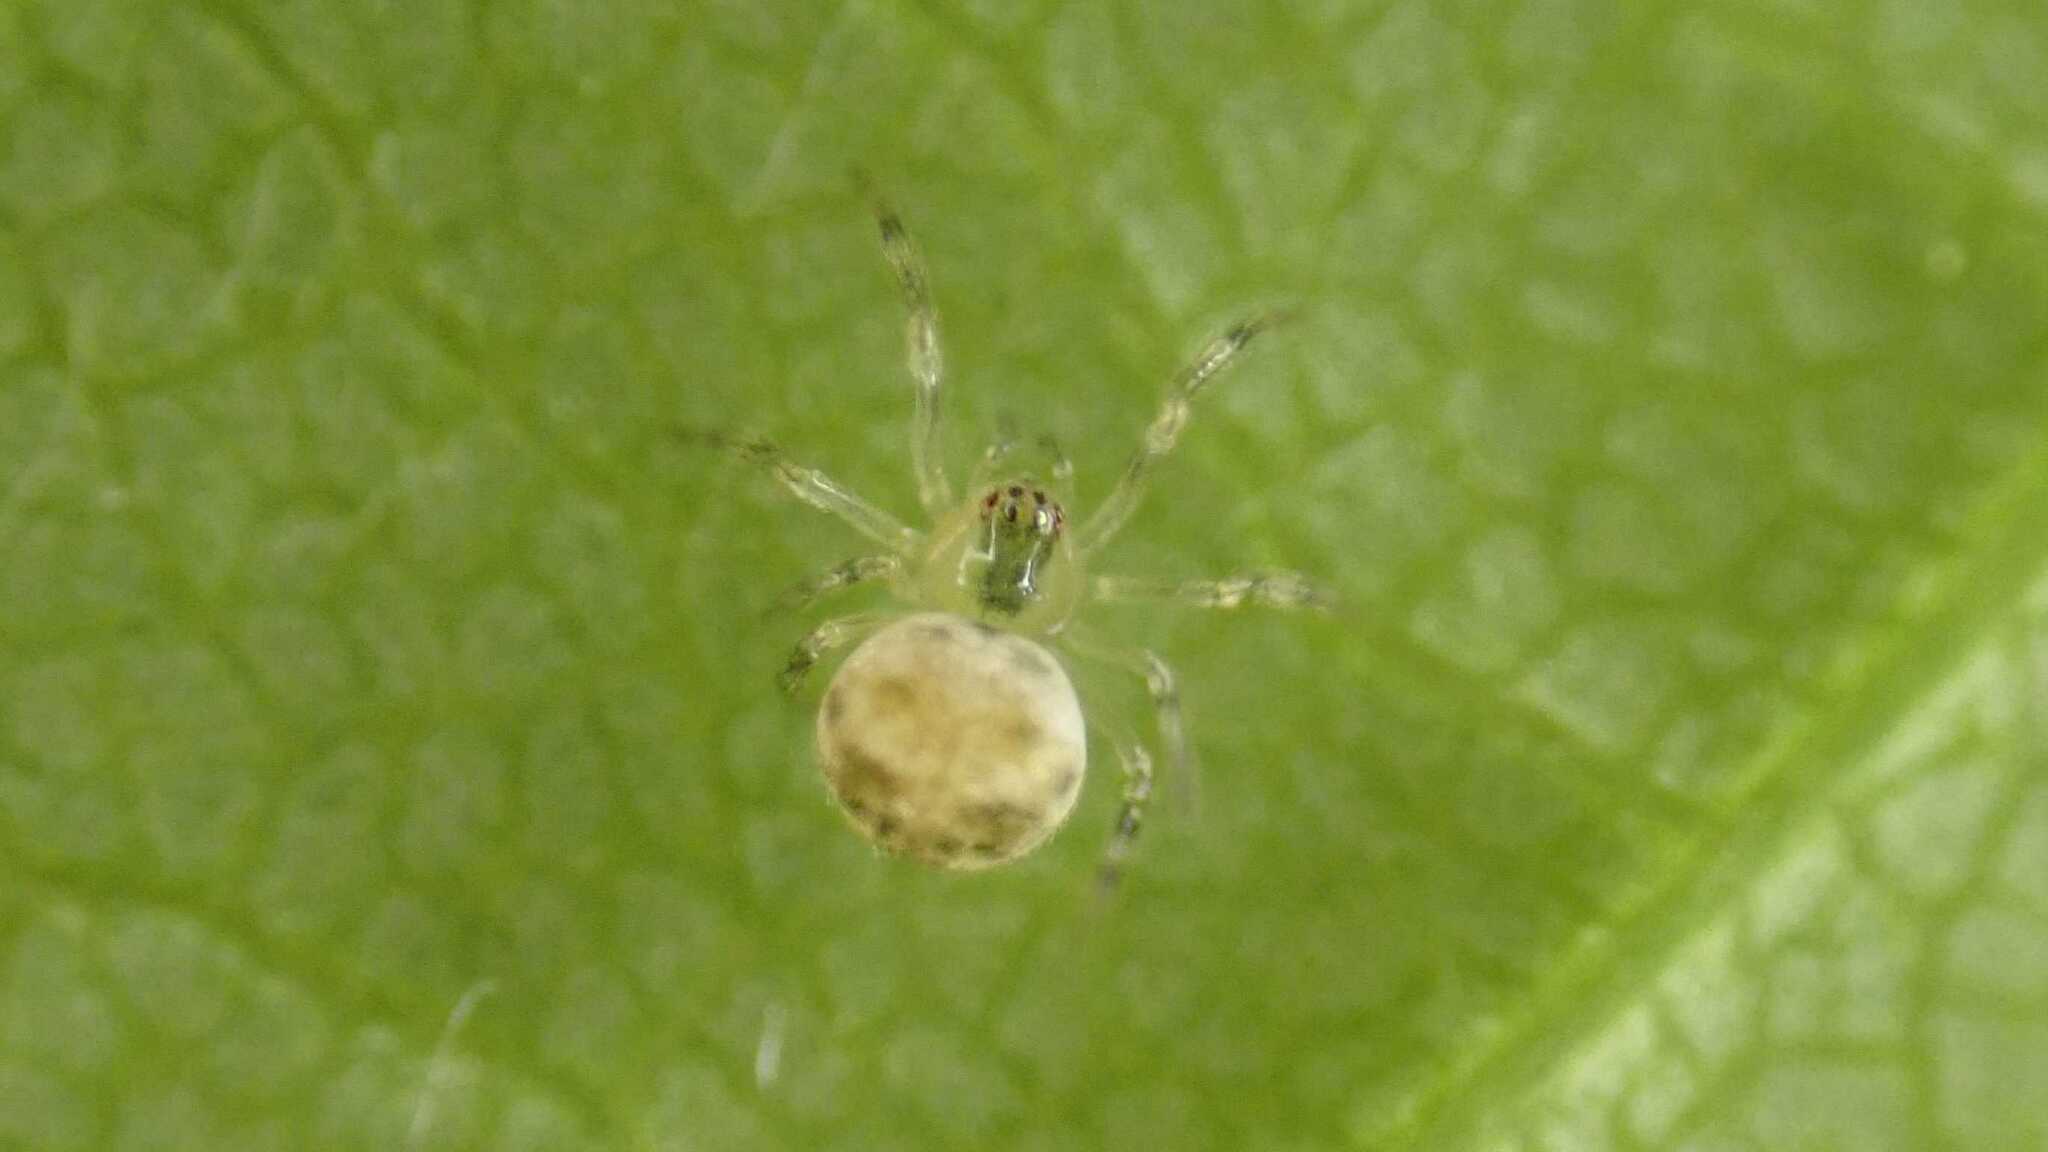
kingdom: Animalia
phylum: Arthropoda
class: Arachnida
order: Araneae
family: Theridiidae
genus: Paidiscura
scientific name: Paidiscura pallens
